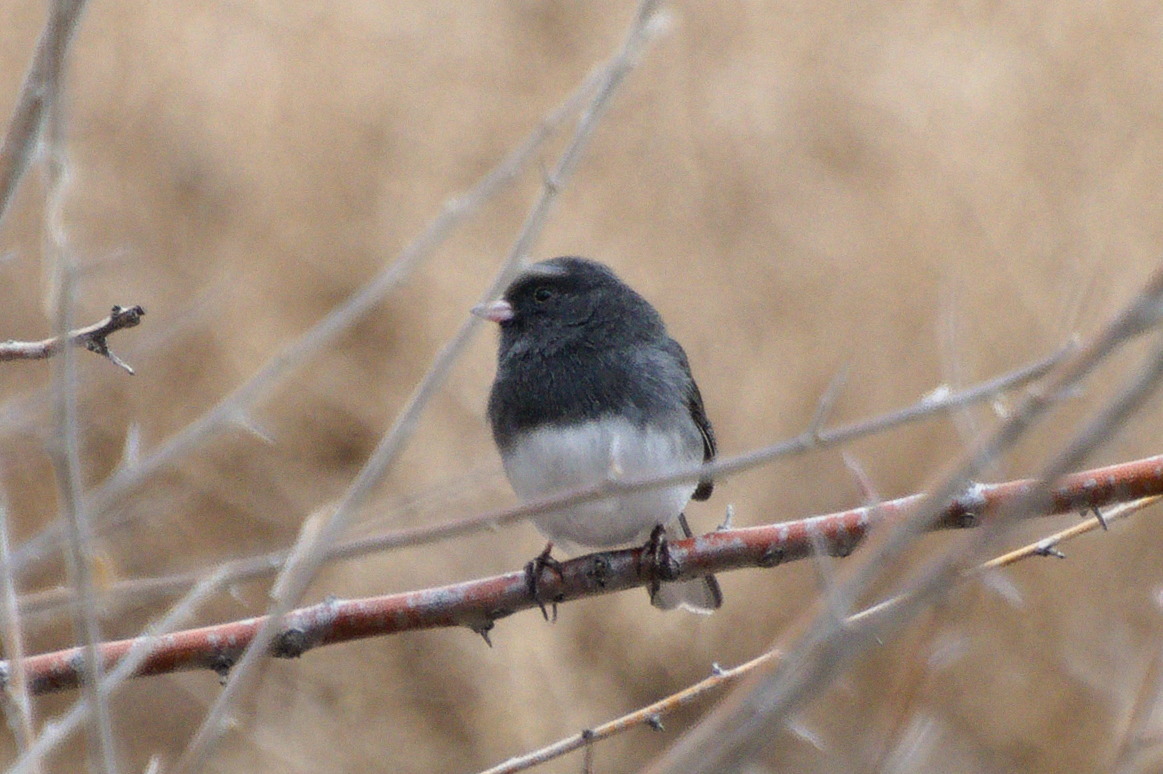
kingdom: Animalia
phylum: Chordata
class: Aves
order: Passeriformes
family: Passerellidae
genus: Junco
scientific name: Junco hyemalis
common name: Dark-eyed junco
